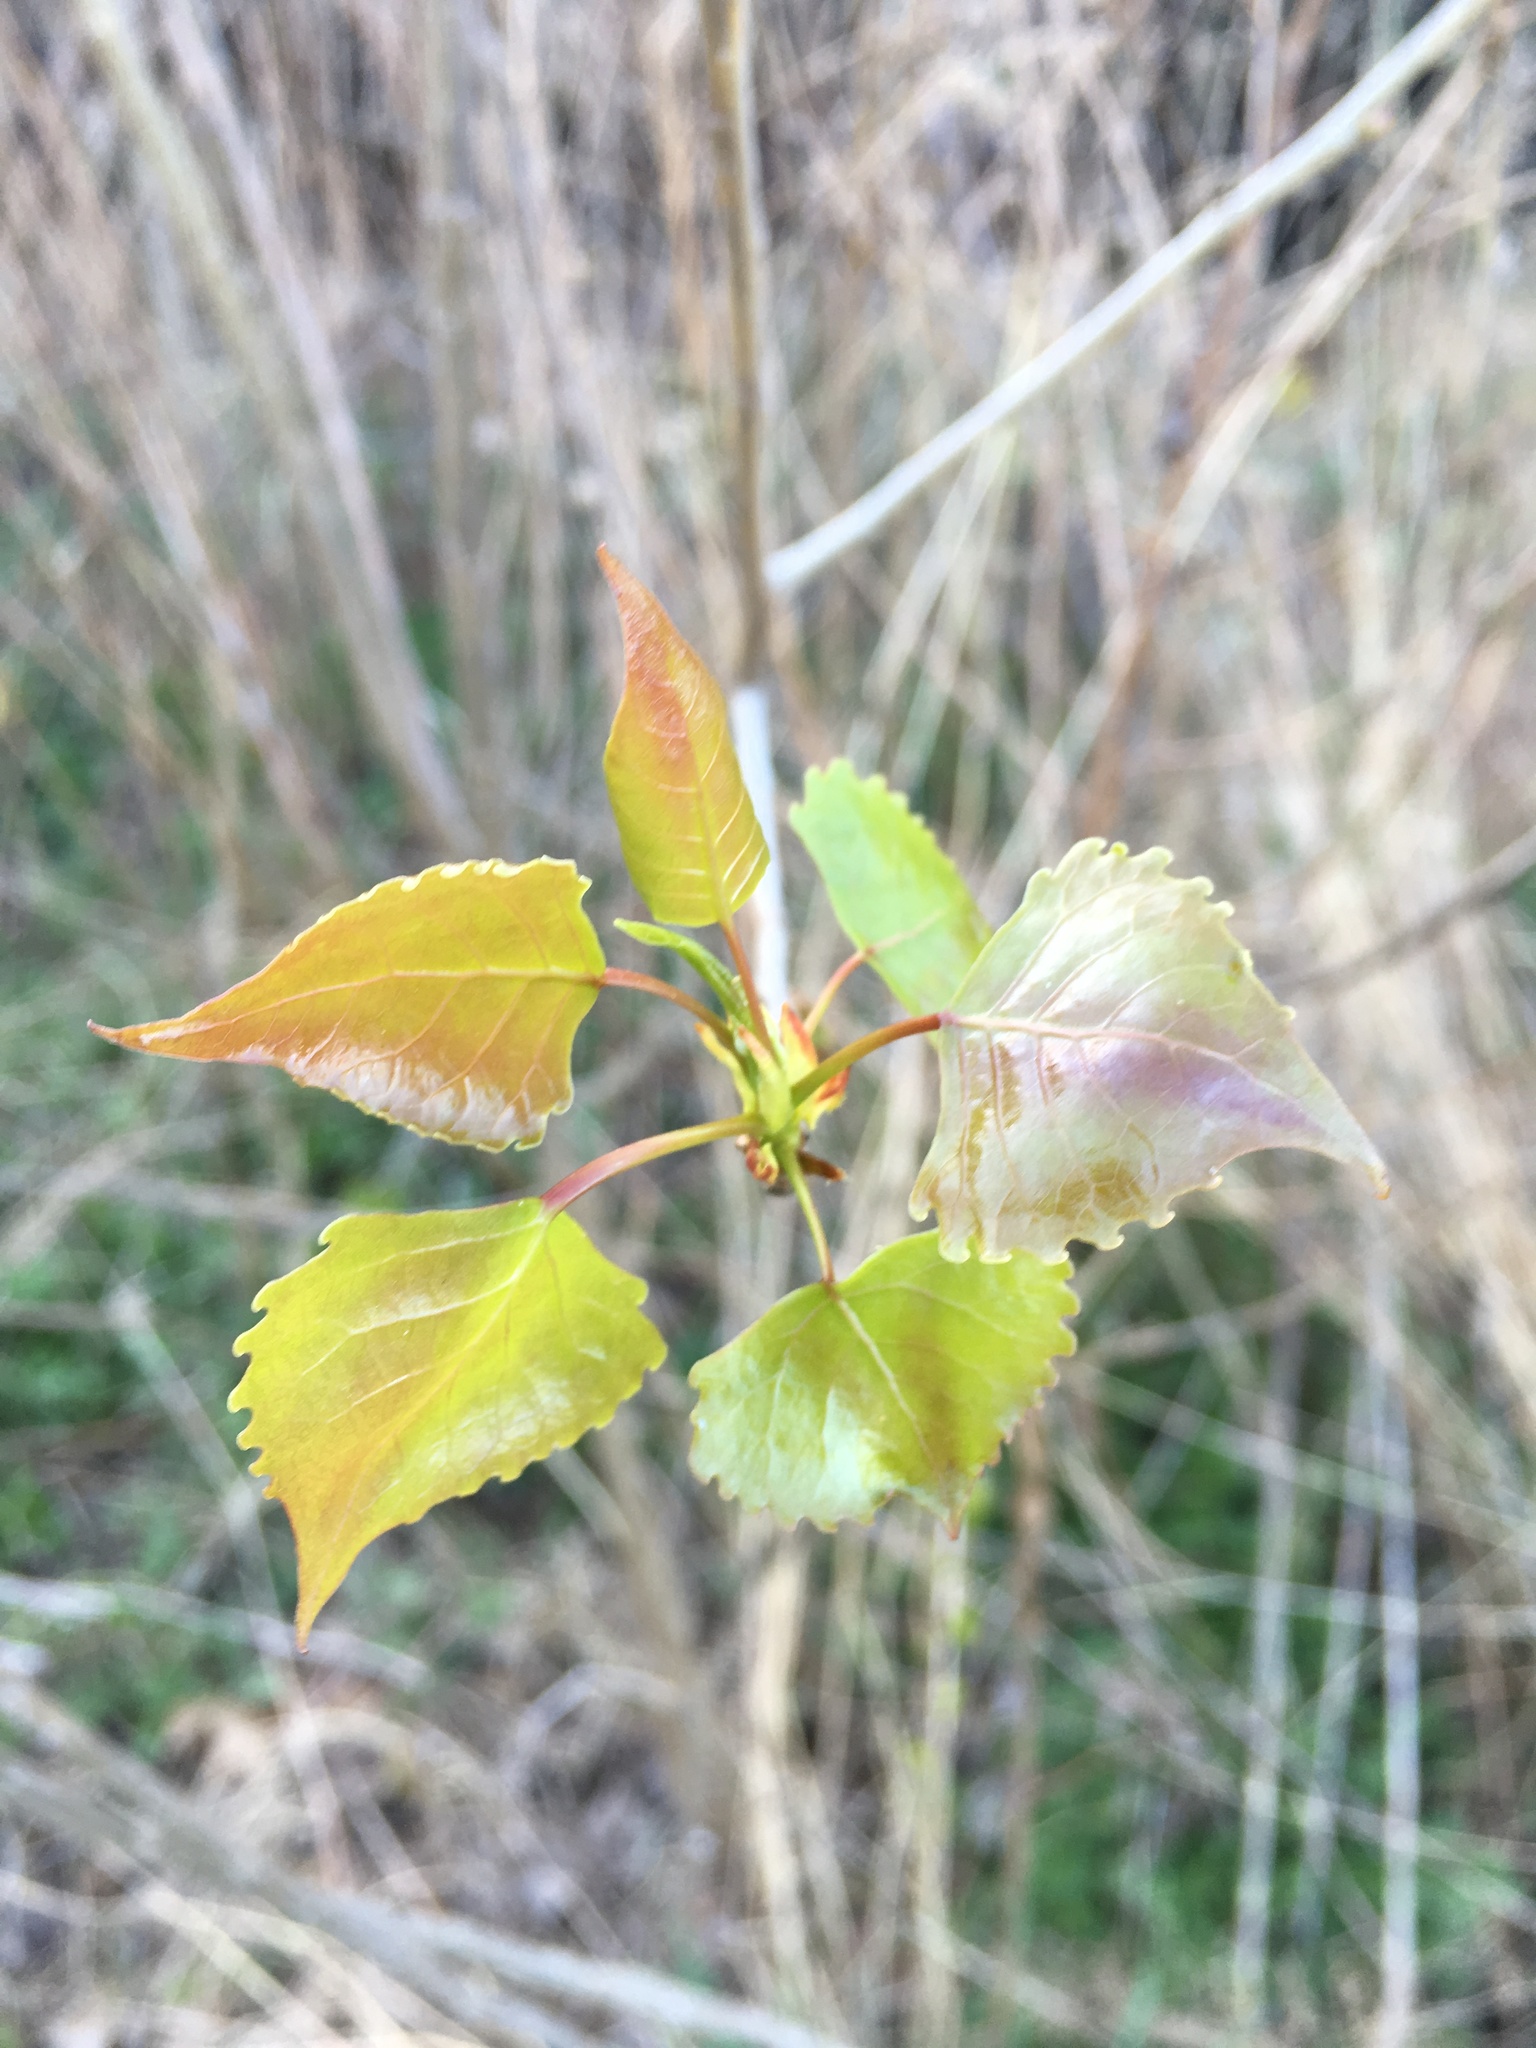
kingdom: Plantae
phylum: Tracheophyta
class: Magnoliopsida
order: Malpighiales
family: Salicaceae
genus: Populus
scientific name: Populus deltoides
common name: Eastern cottonwood
